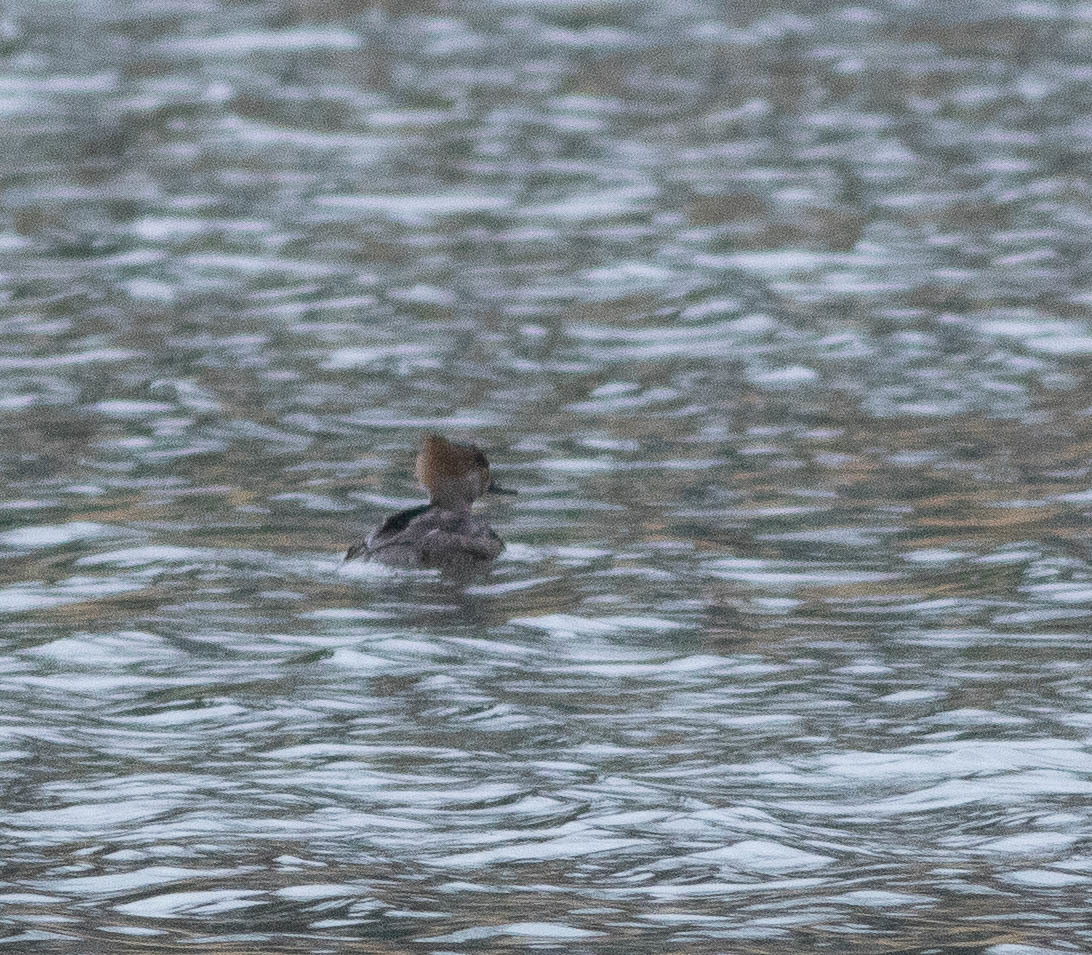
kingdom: Animalia
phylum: Chordata
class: Aves
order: Anseriformes
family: Anatidae
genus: Lophodytes
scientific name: Lophodytes cucullatus
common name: Hooded merganser
